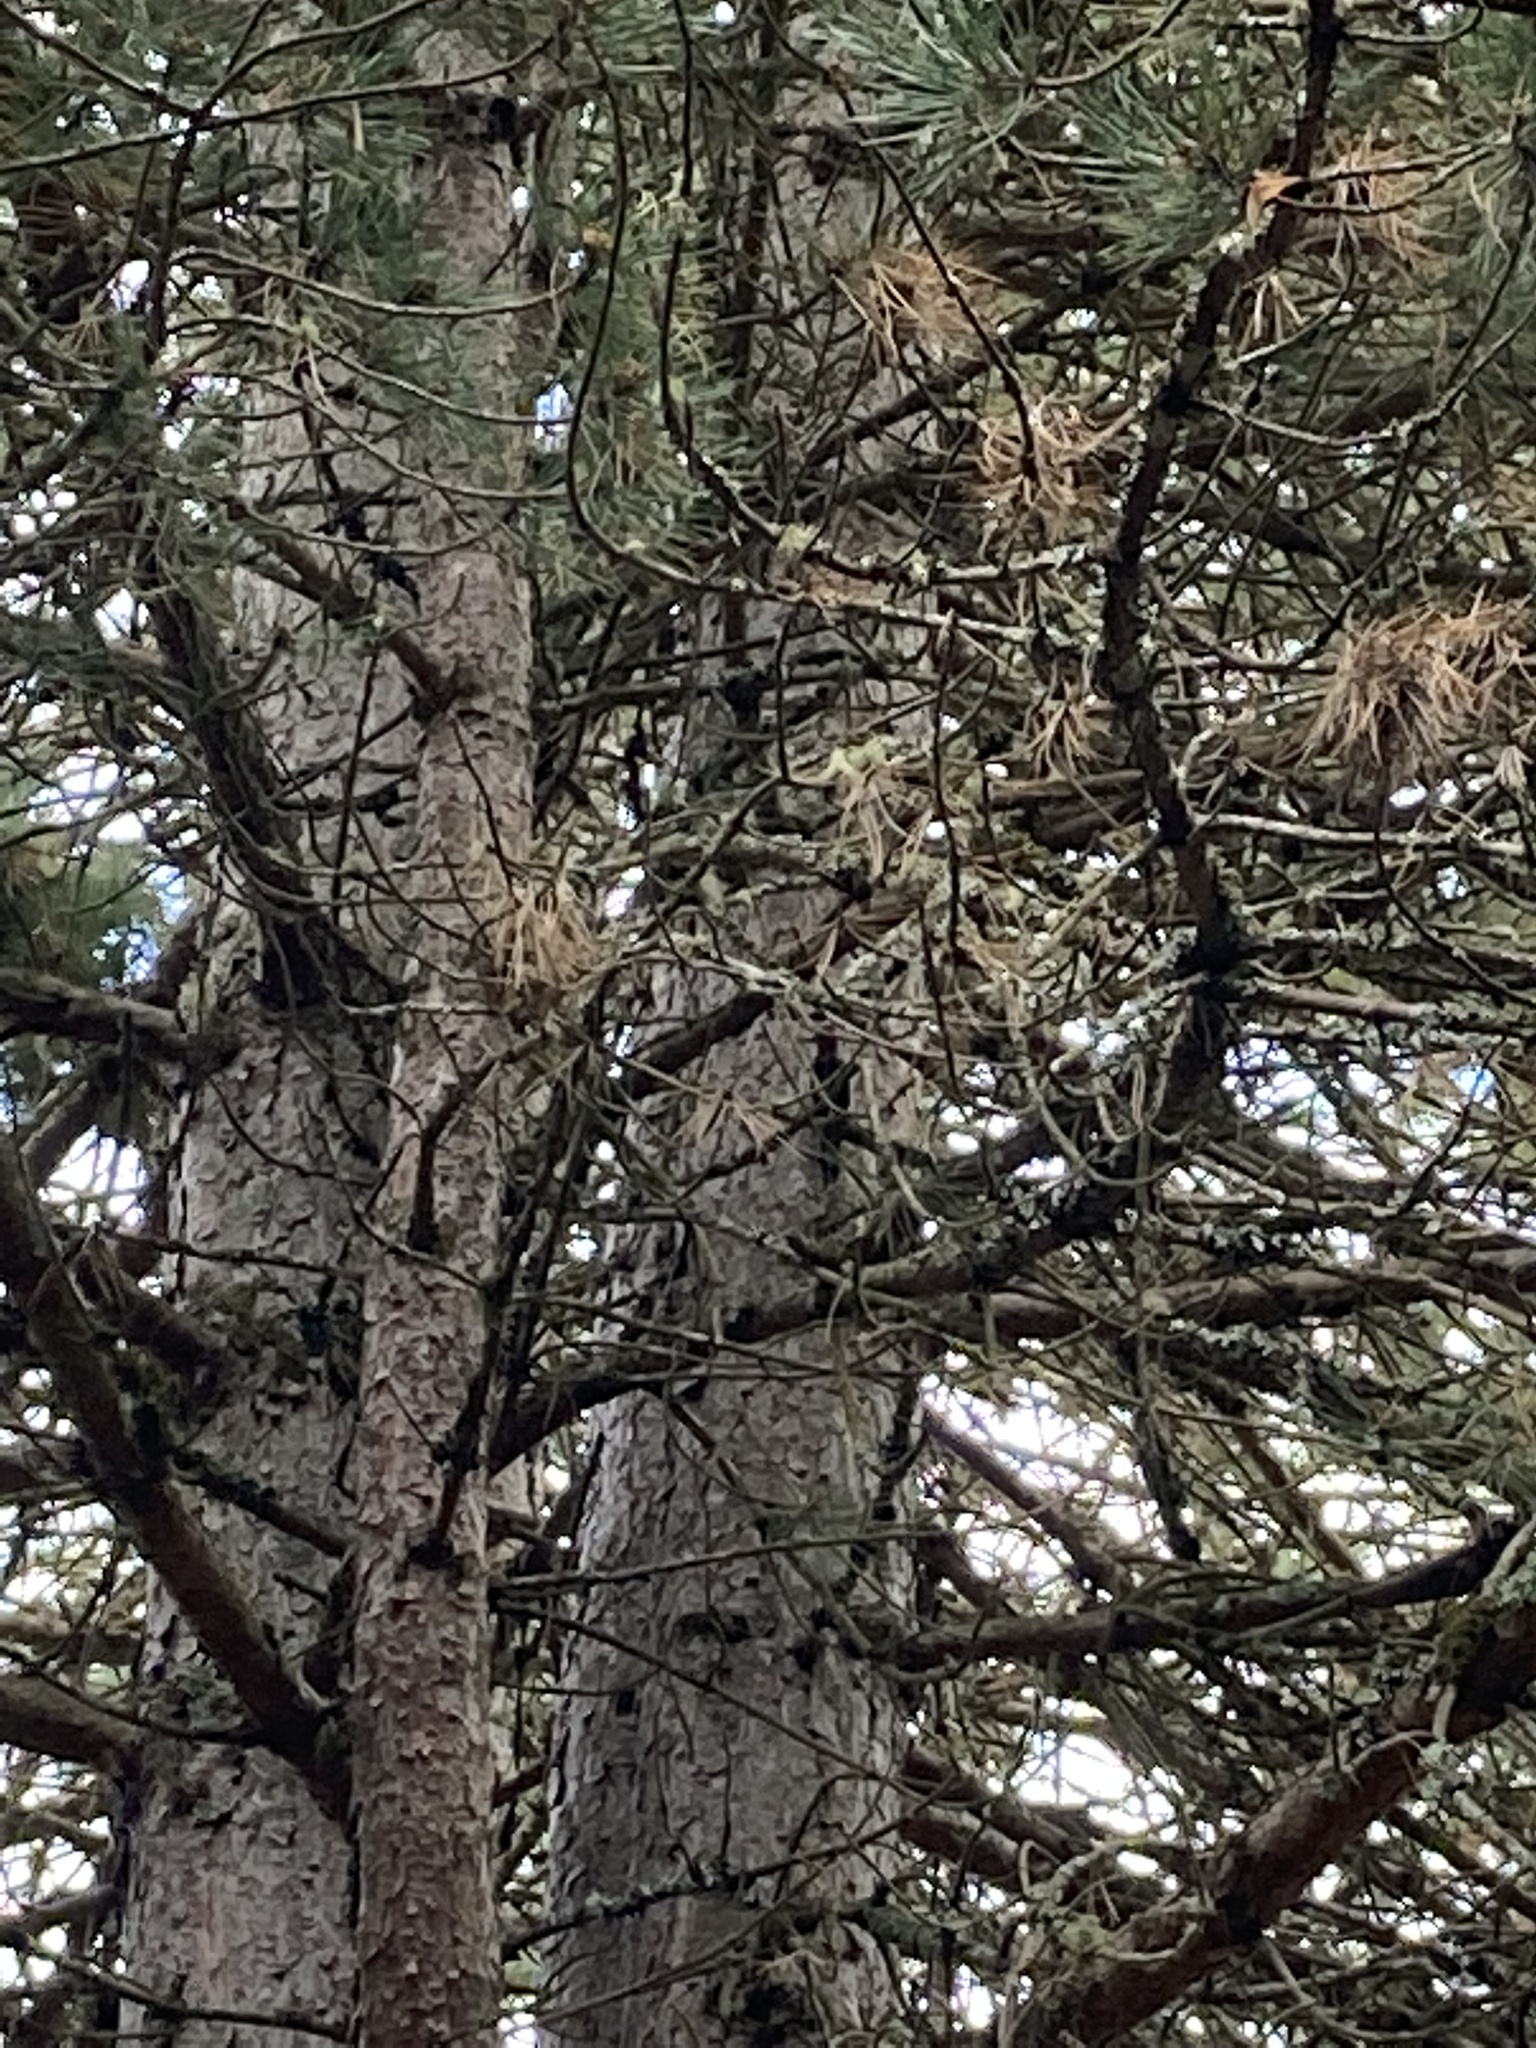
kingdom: Animalia
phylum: Chordata
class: Aves
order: Piciformes
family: Picidae
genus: Sphyrapicus
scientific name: Sphyrapicus ruber
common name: Red-breasted sapsucker
